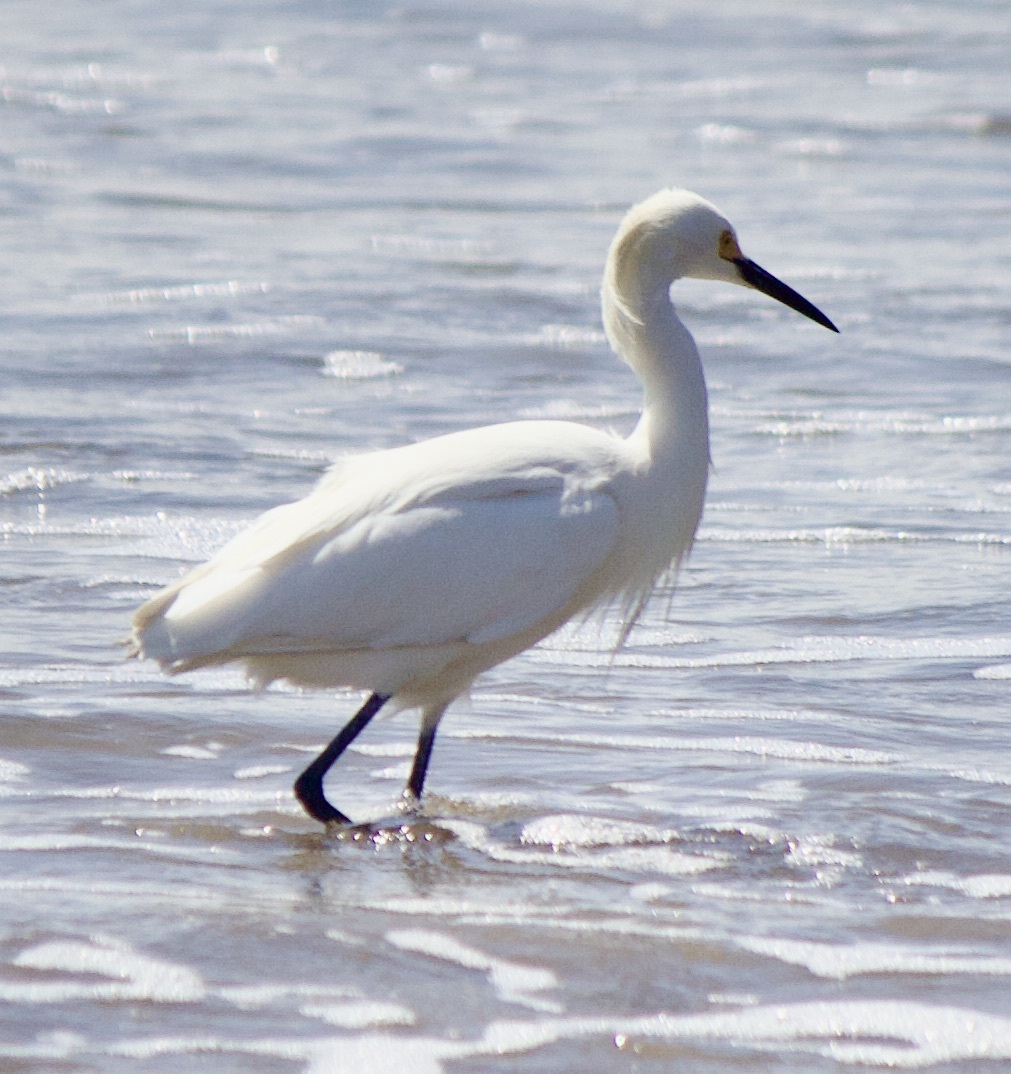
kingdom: Animalia
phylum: Chordata
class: Aves
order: Pelecaniformes
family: Ardeidae
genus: Egretta
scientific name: Egretta thula
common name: Snowy egret
